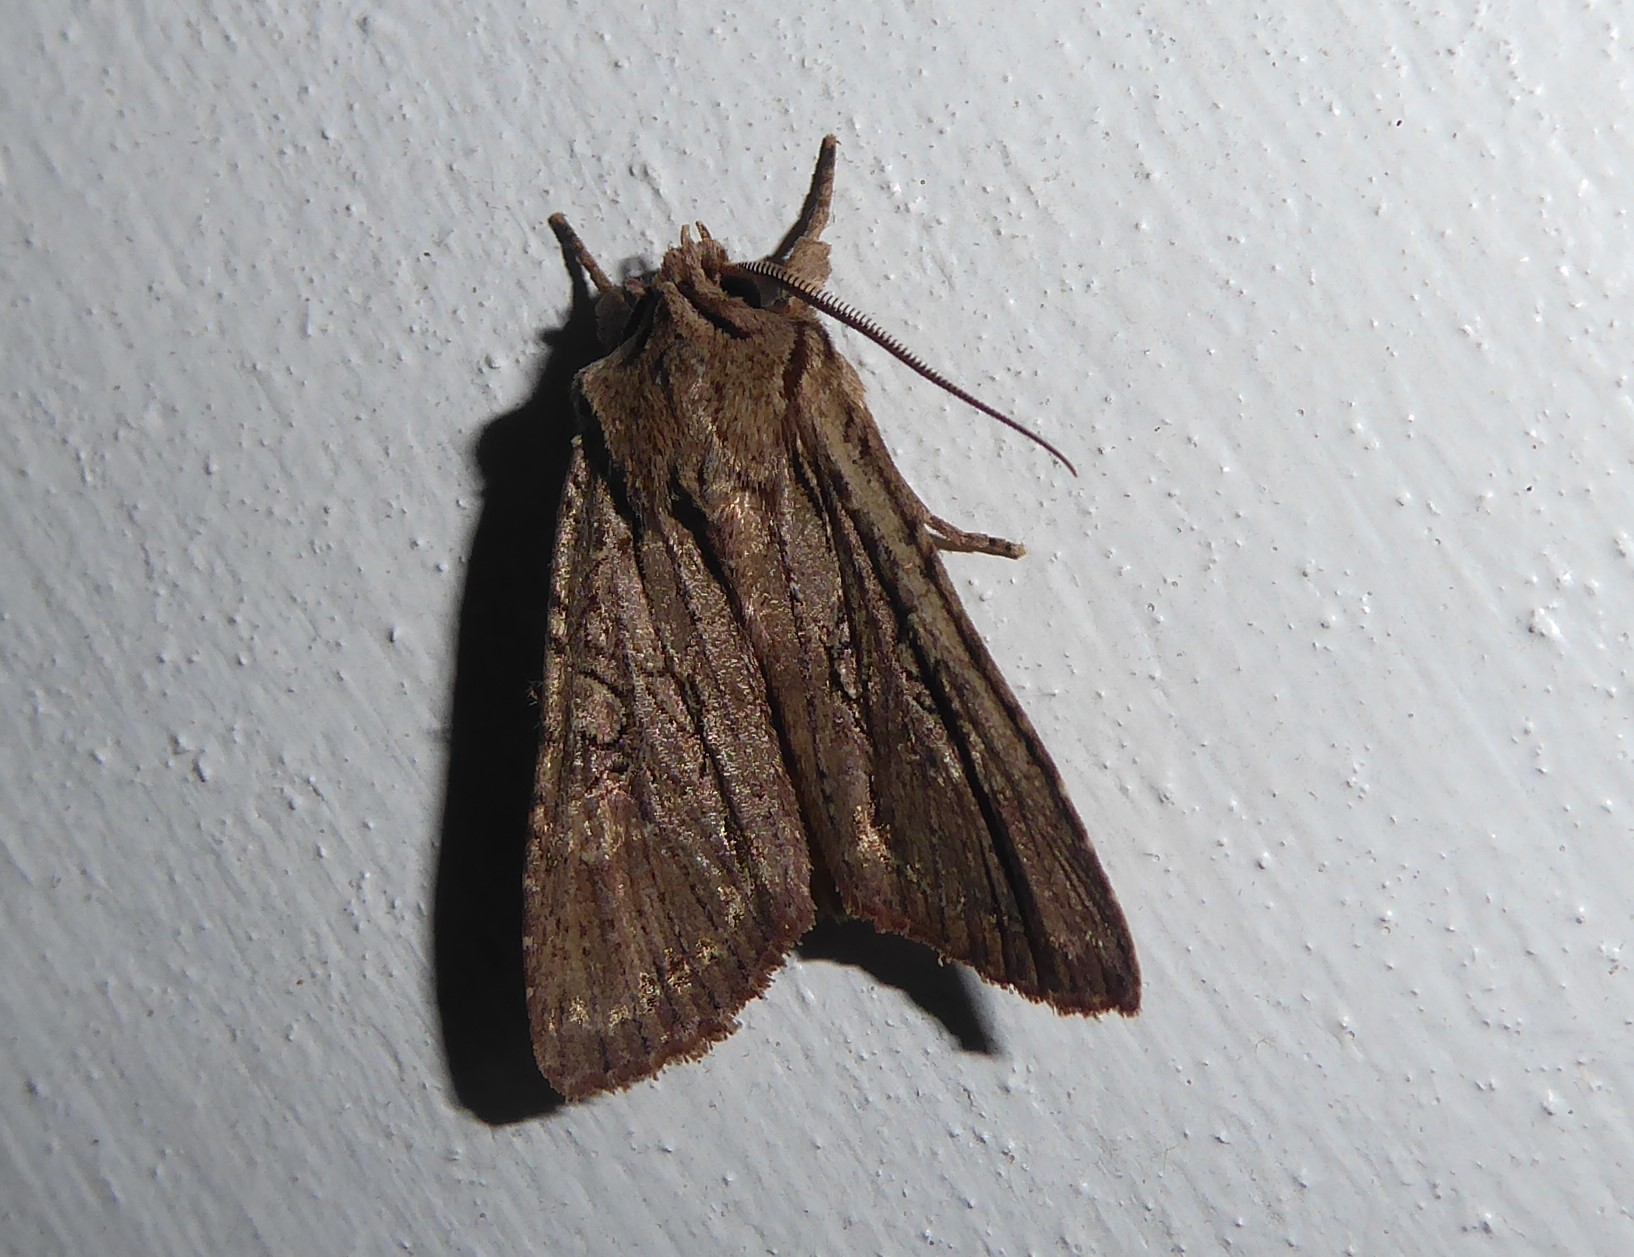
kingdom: Animalia
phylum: Arthropoda
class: Insecta
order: Lepidoptera
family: Noctuidae
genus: Ichneutica
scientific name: Ichneutica
